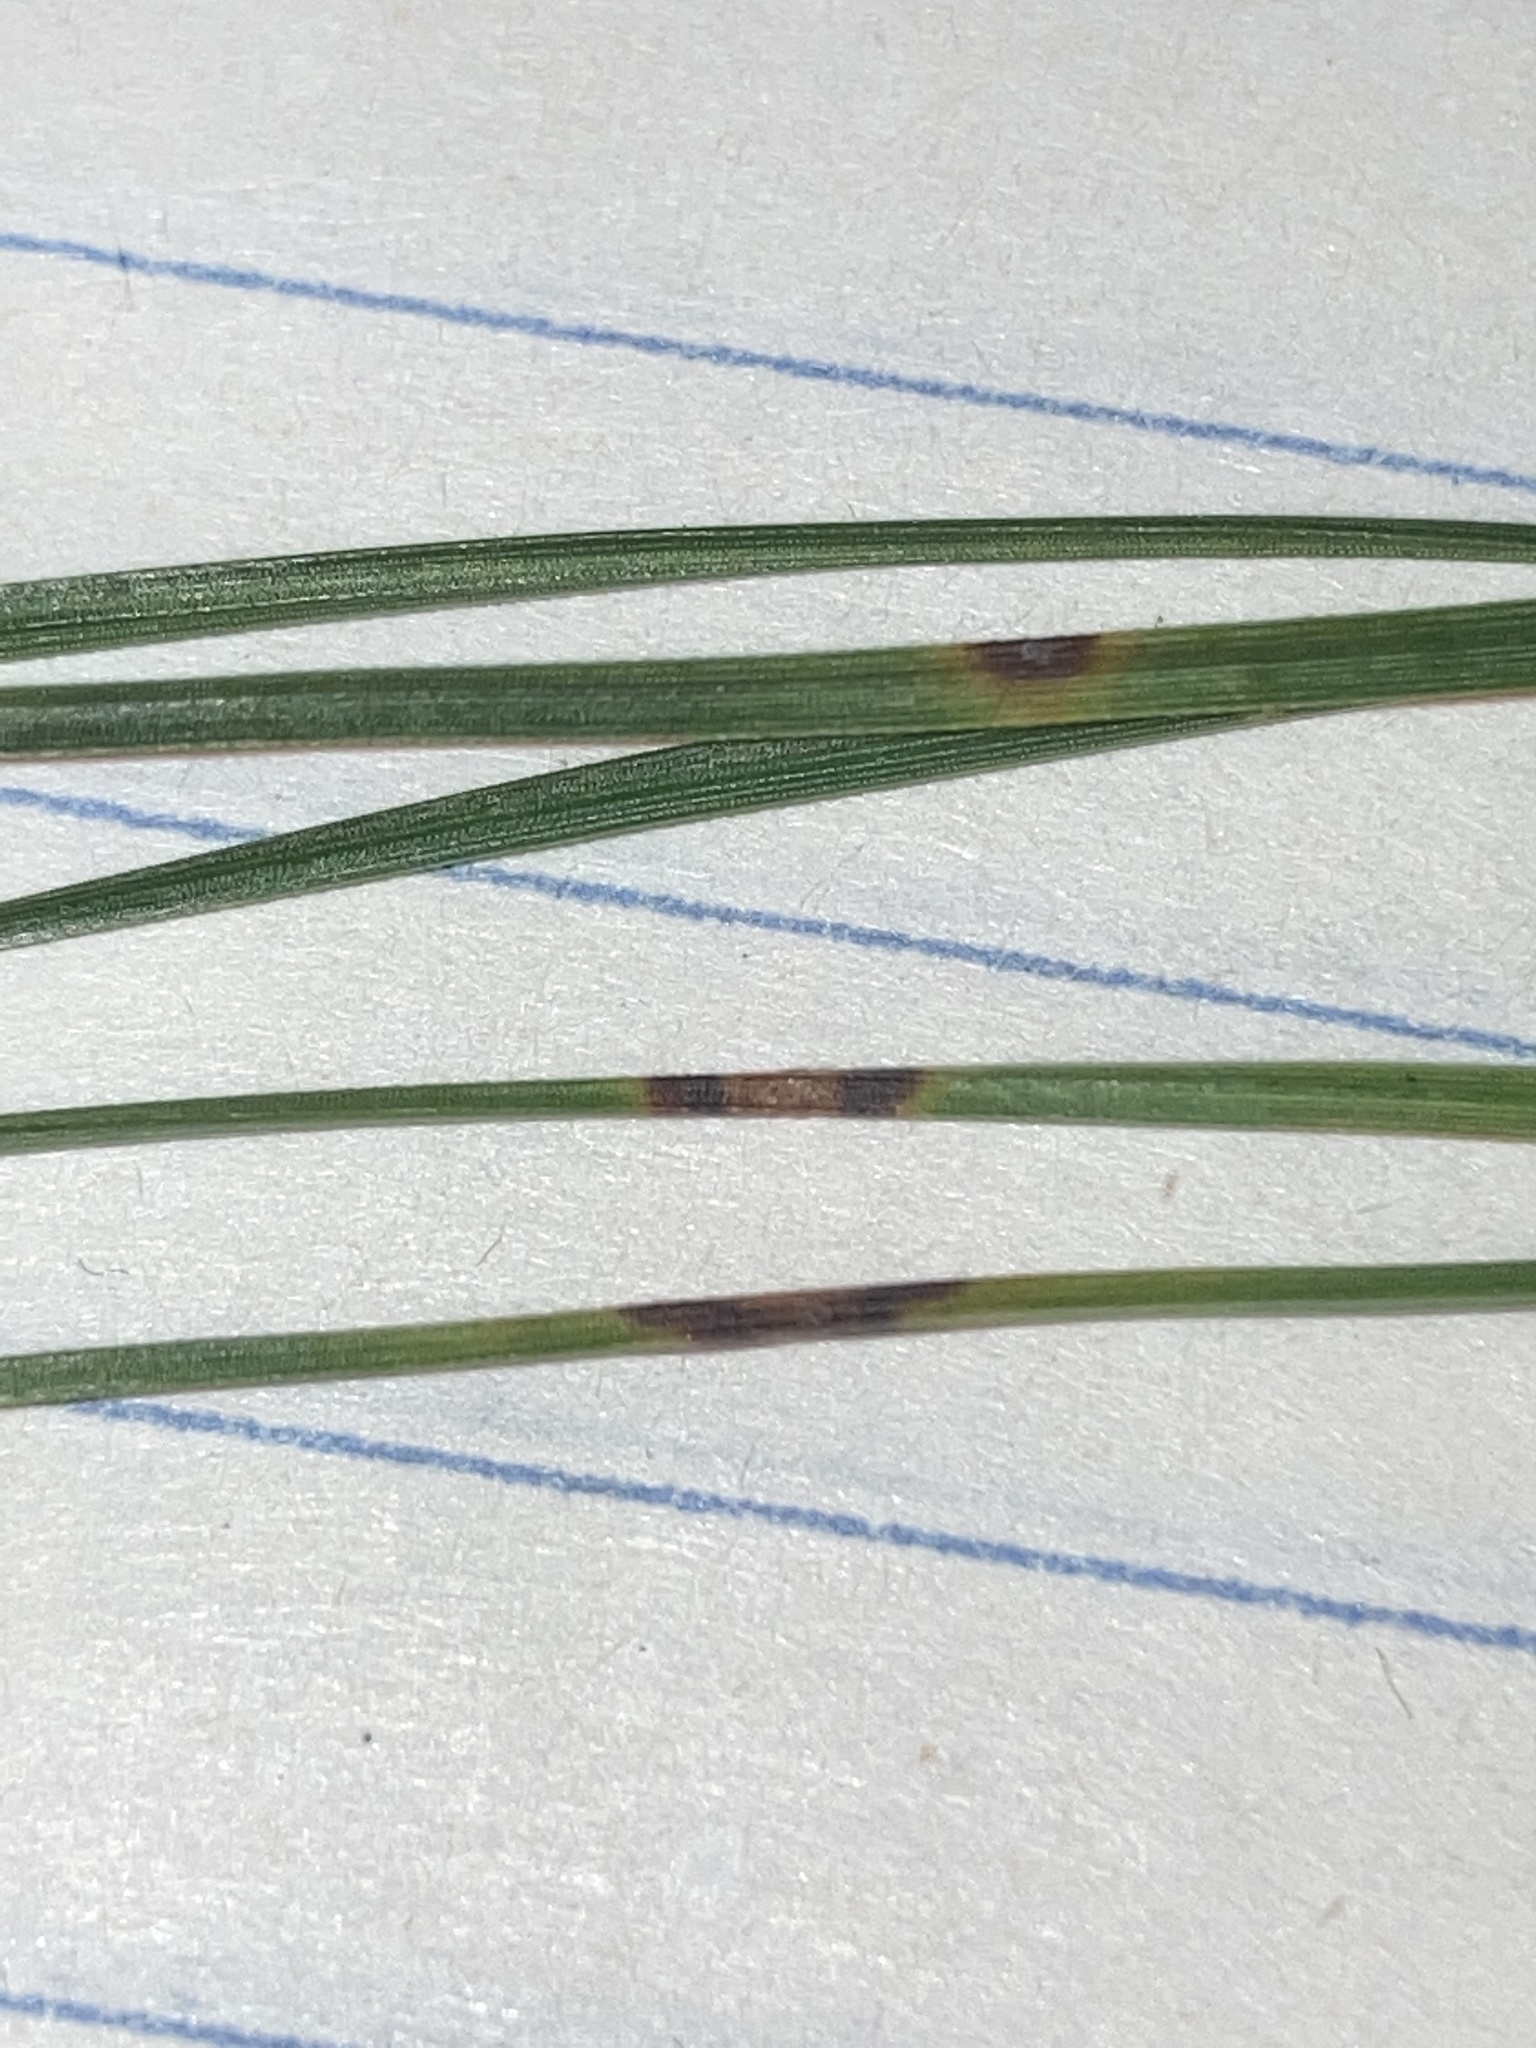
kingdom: Fungi
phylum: Ascomycota
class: Dothideomycetes
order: Mycosphaerellales
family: Mycosphaerellaceae
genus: Lecanosticta
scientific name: Lecanosticta acicola
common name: Brown spot needle blight
